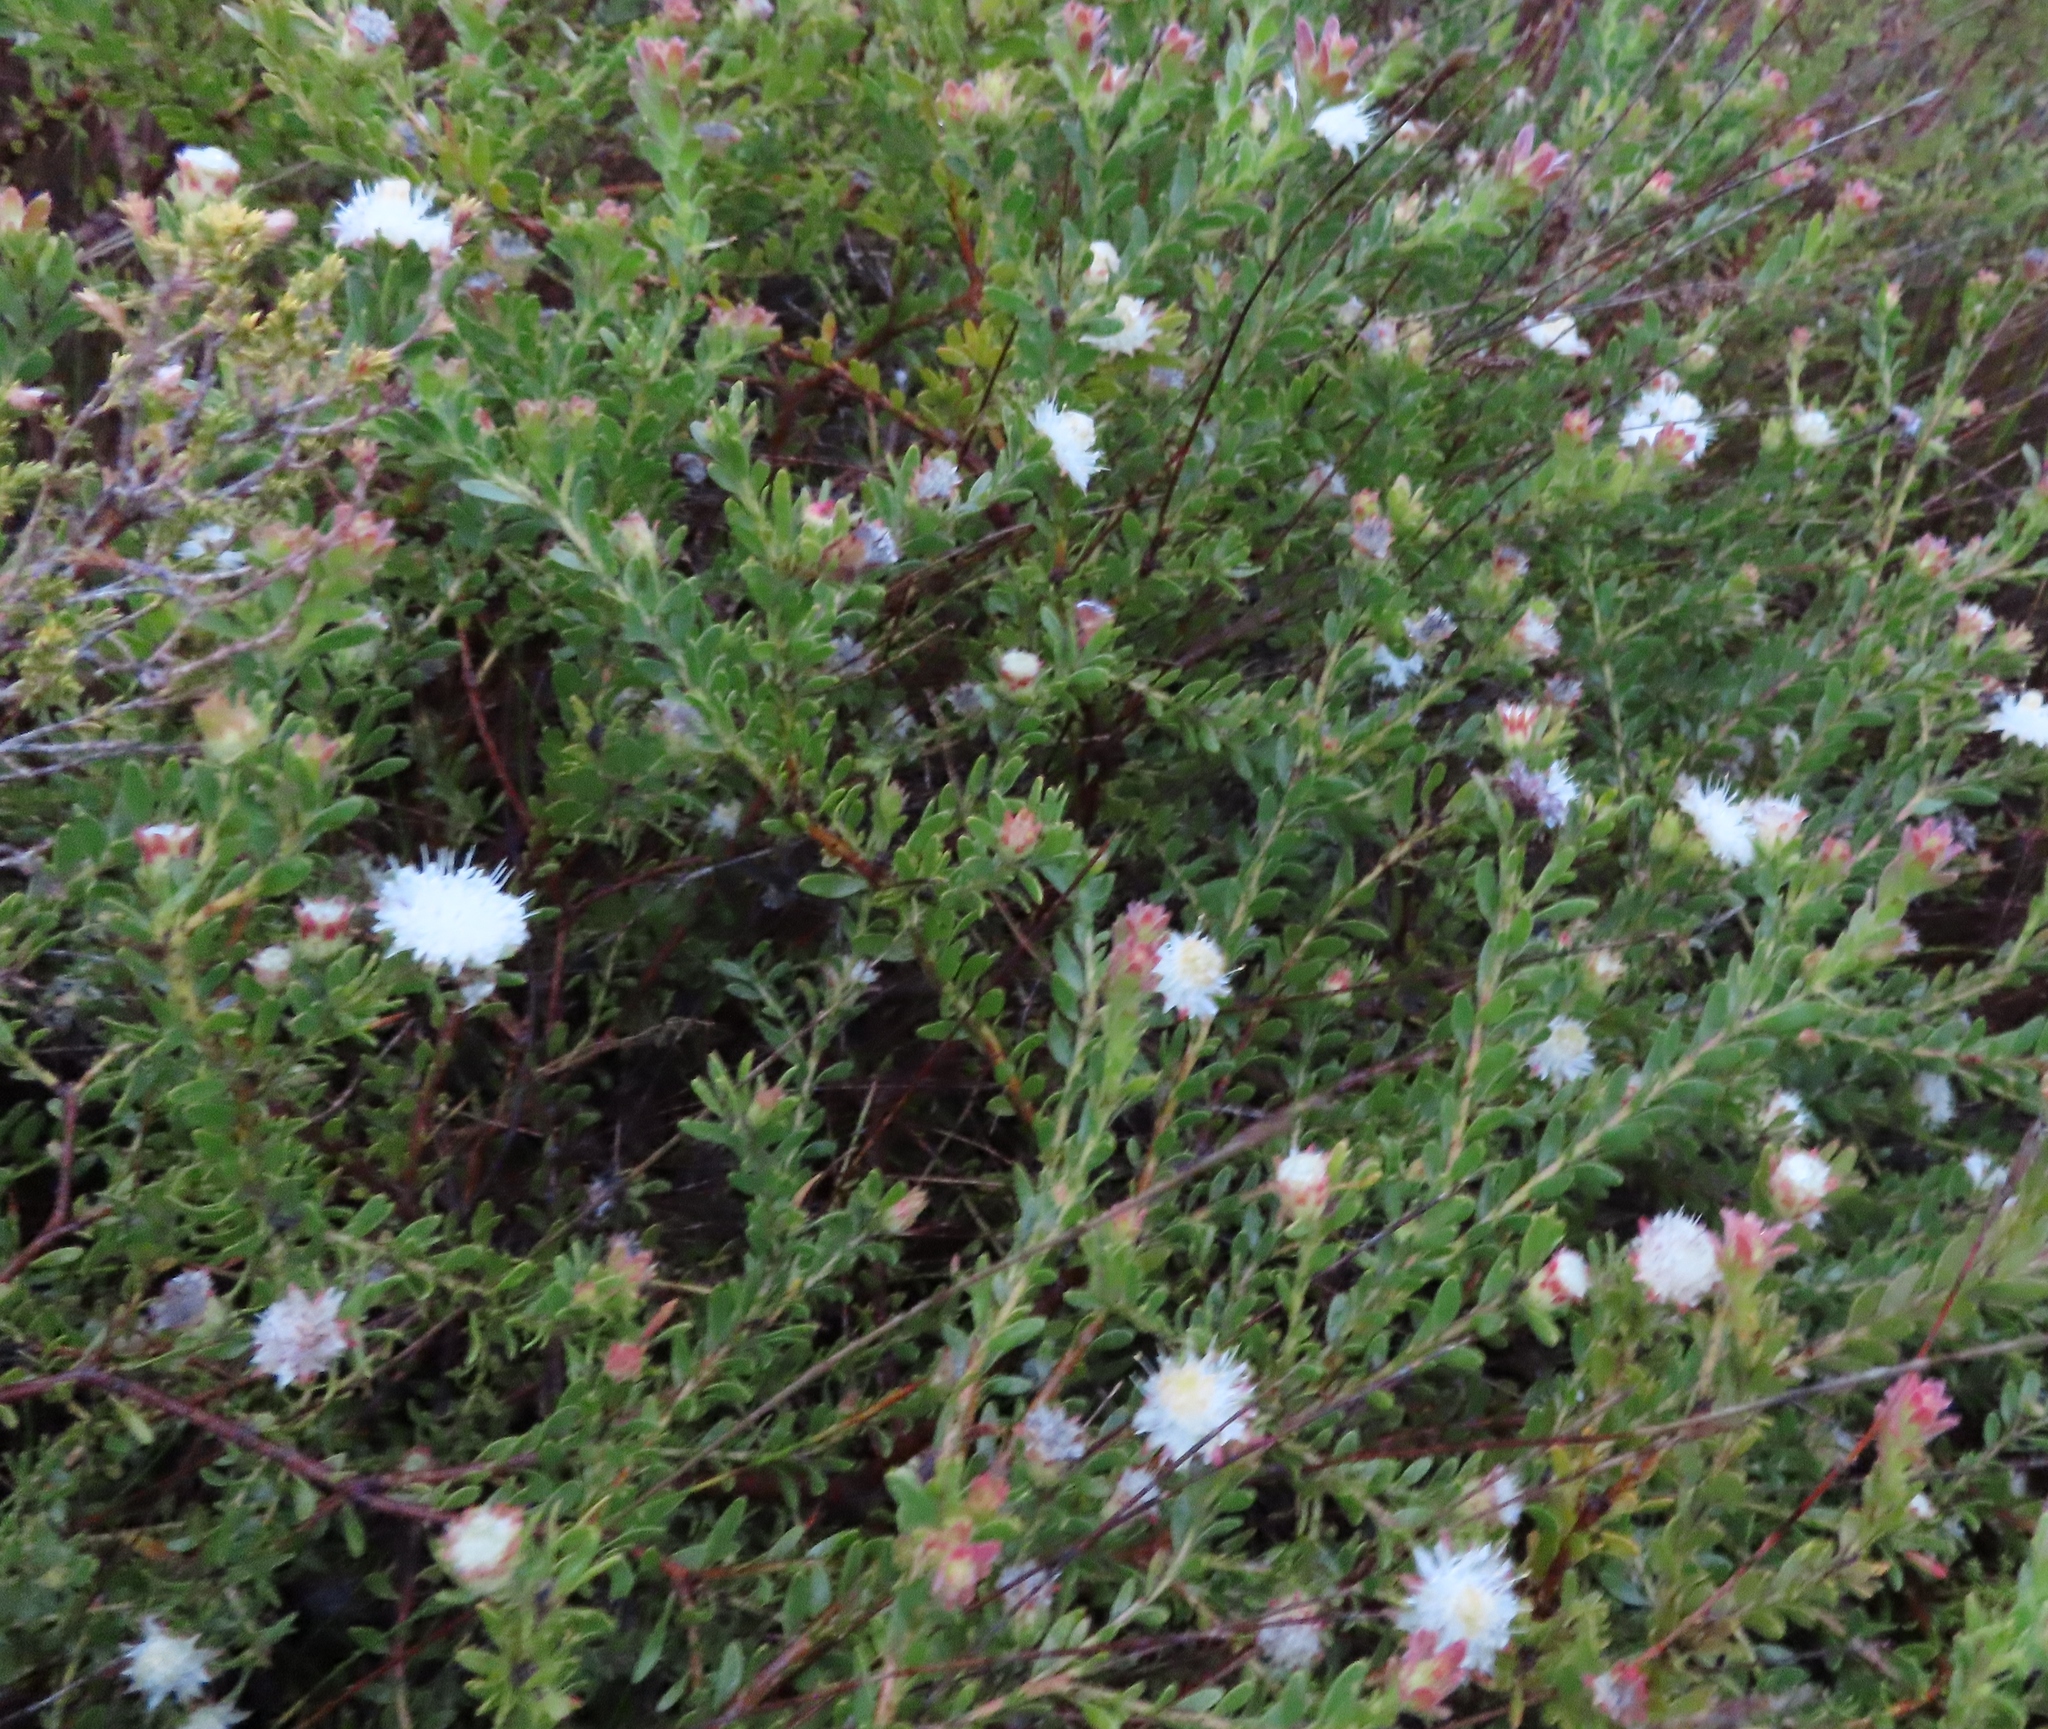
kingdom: Plantae
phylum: Tracheophyta
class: Magnoliopsida
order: Proteales
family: Proteaceae
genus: Diastella
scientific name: Diastella divaricata
